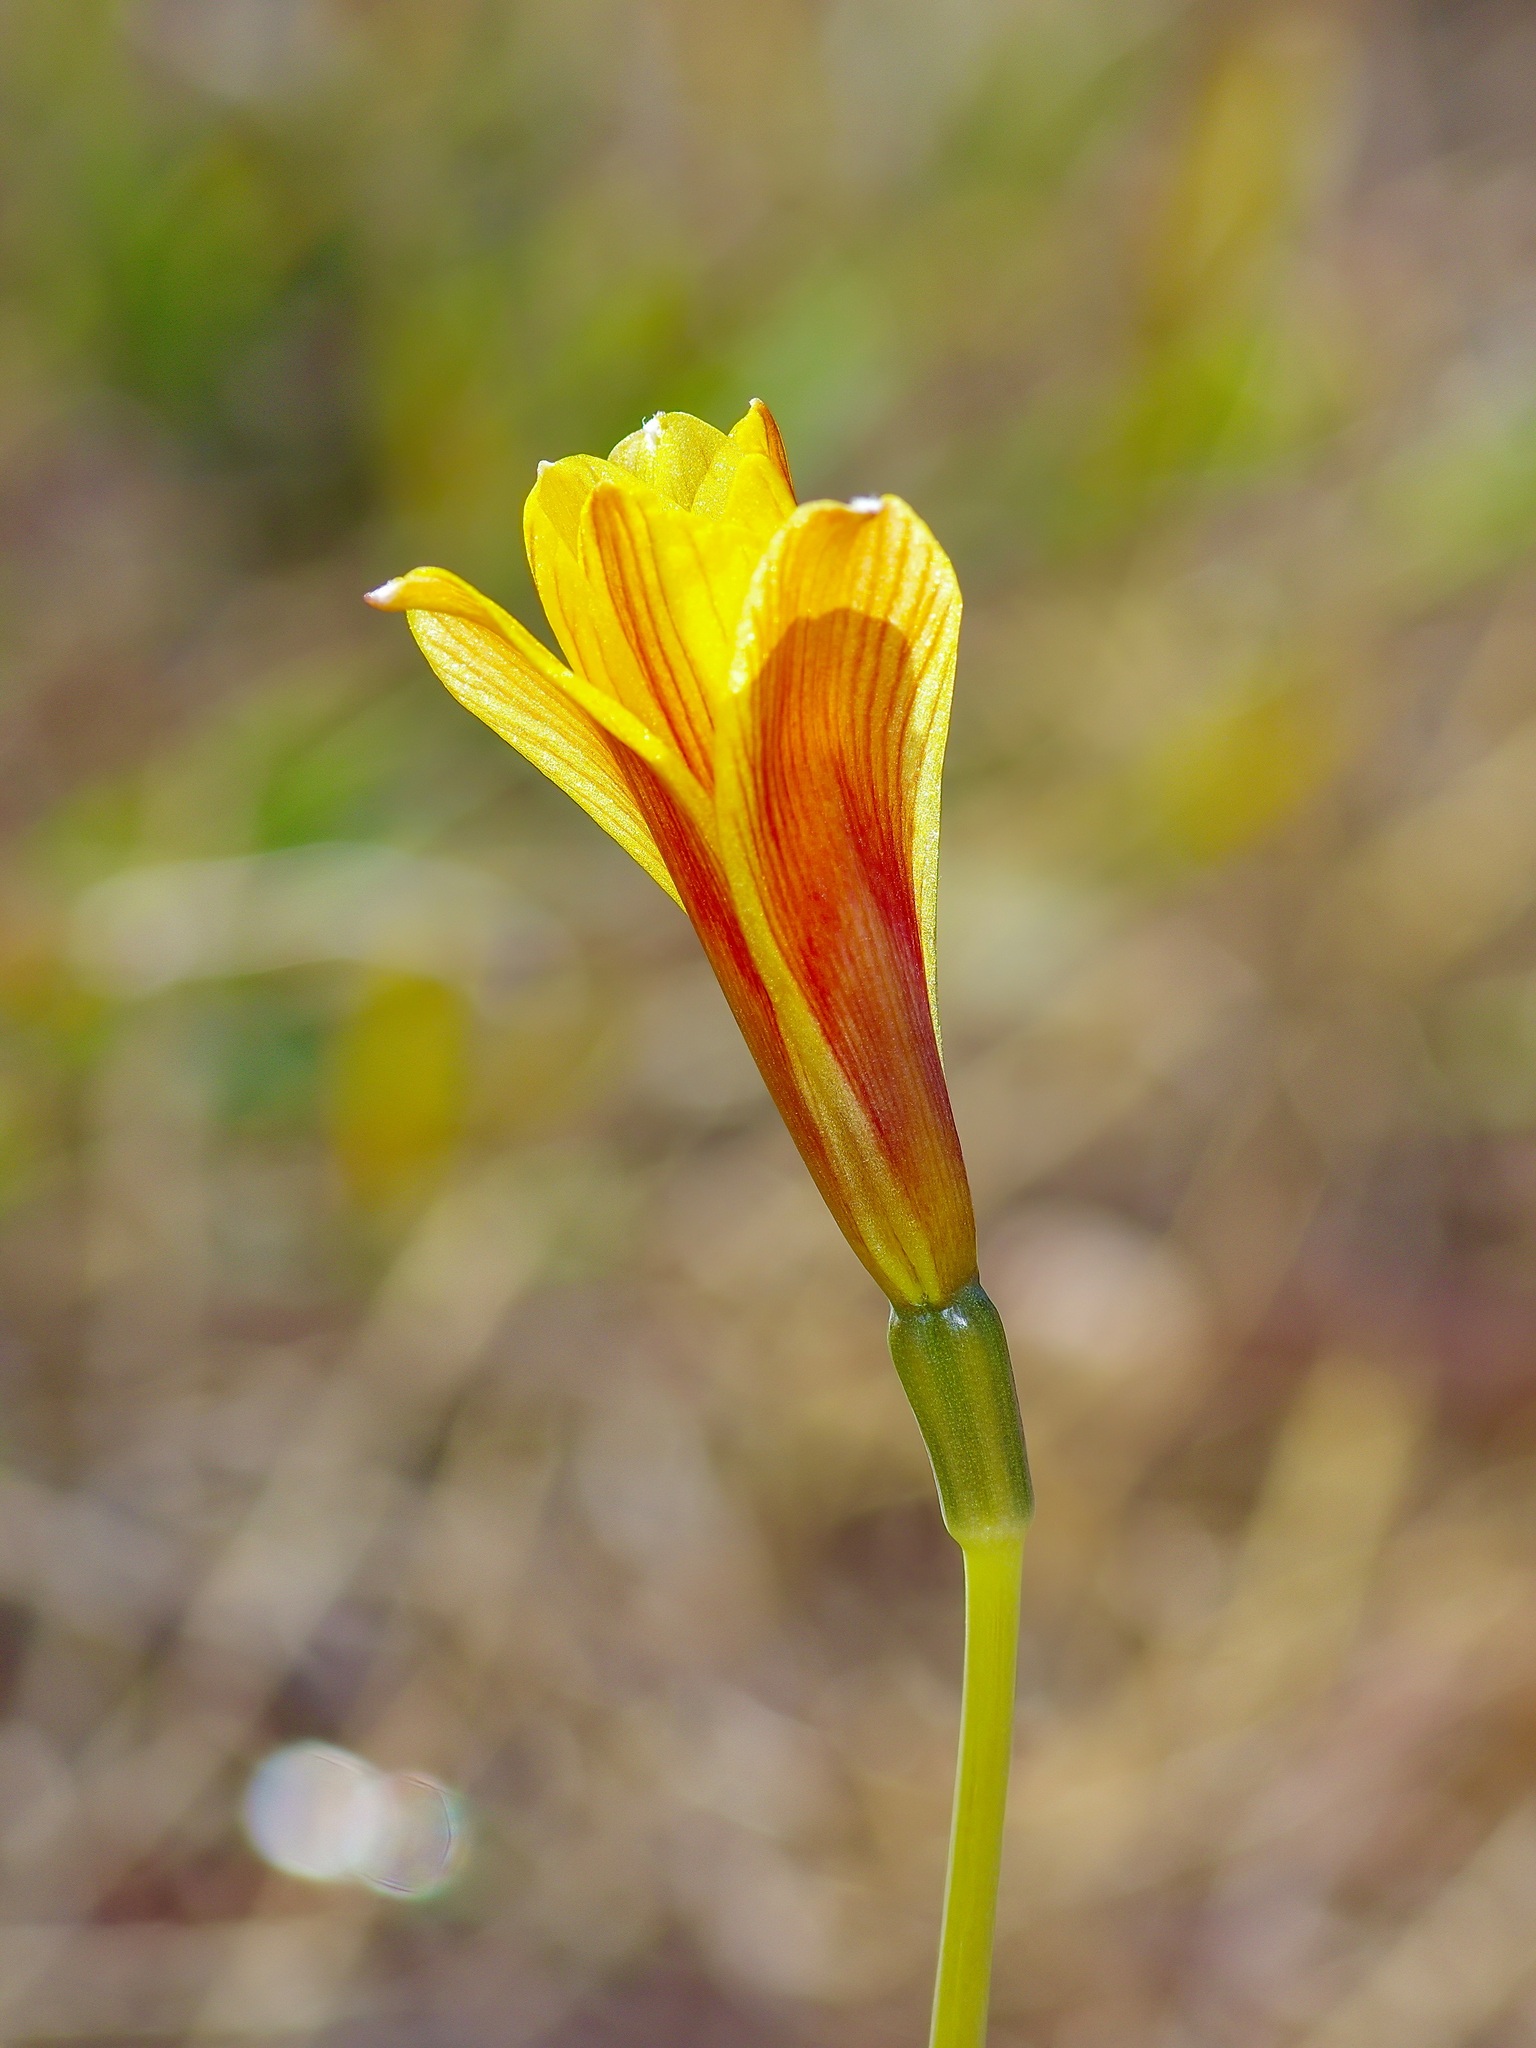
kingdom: Plantae
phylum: Tracheophyta
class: Liliopsida
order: Asparagales
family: Amaryllidaceae
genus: Zephyranthes
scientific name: Zephyranthes tubispatha
